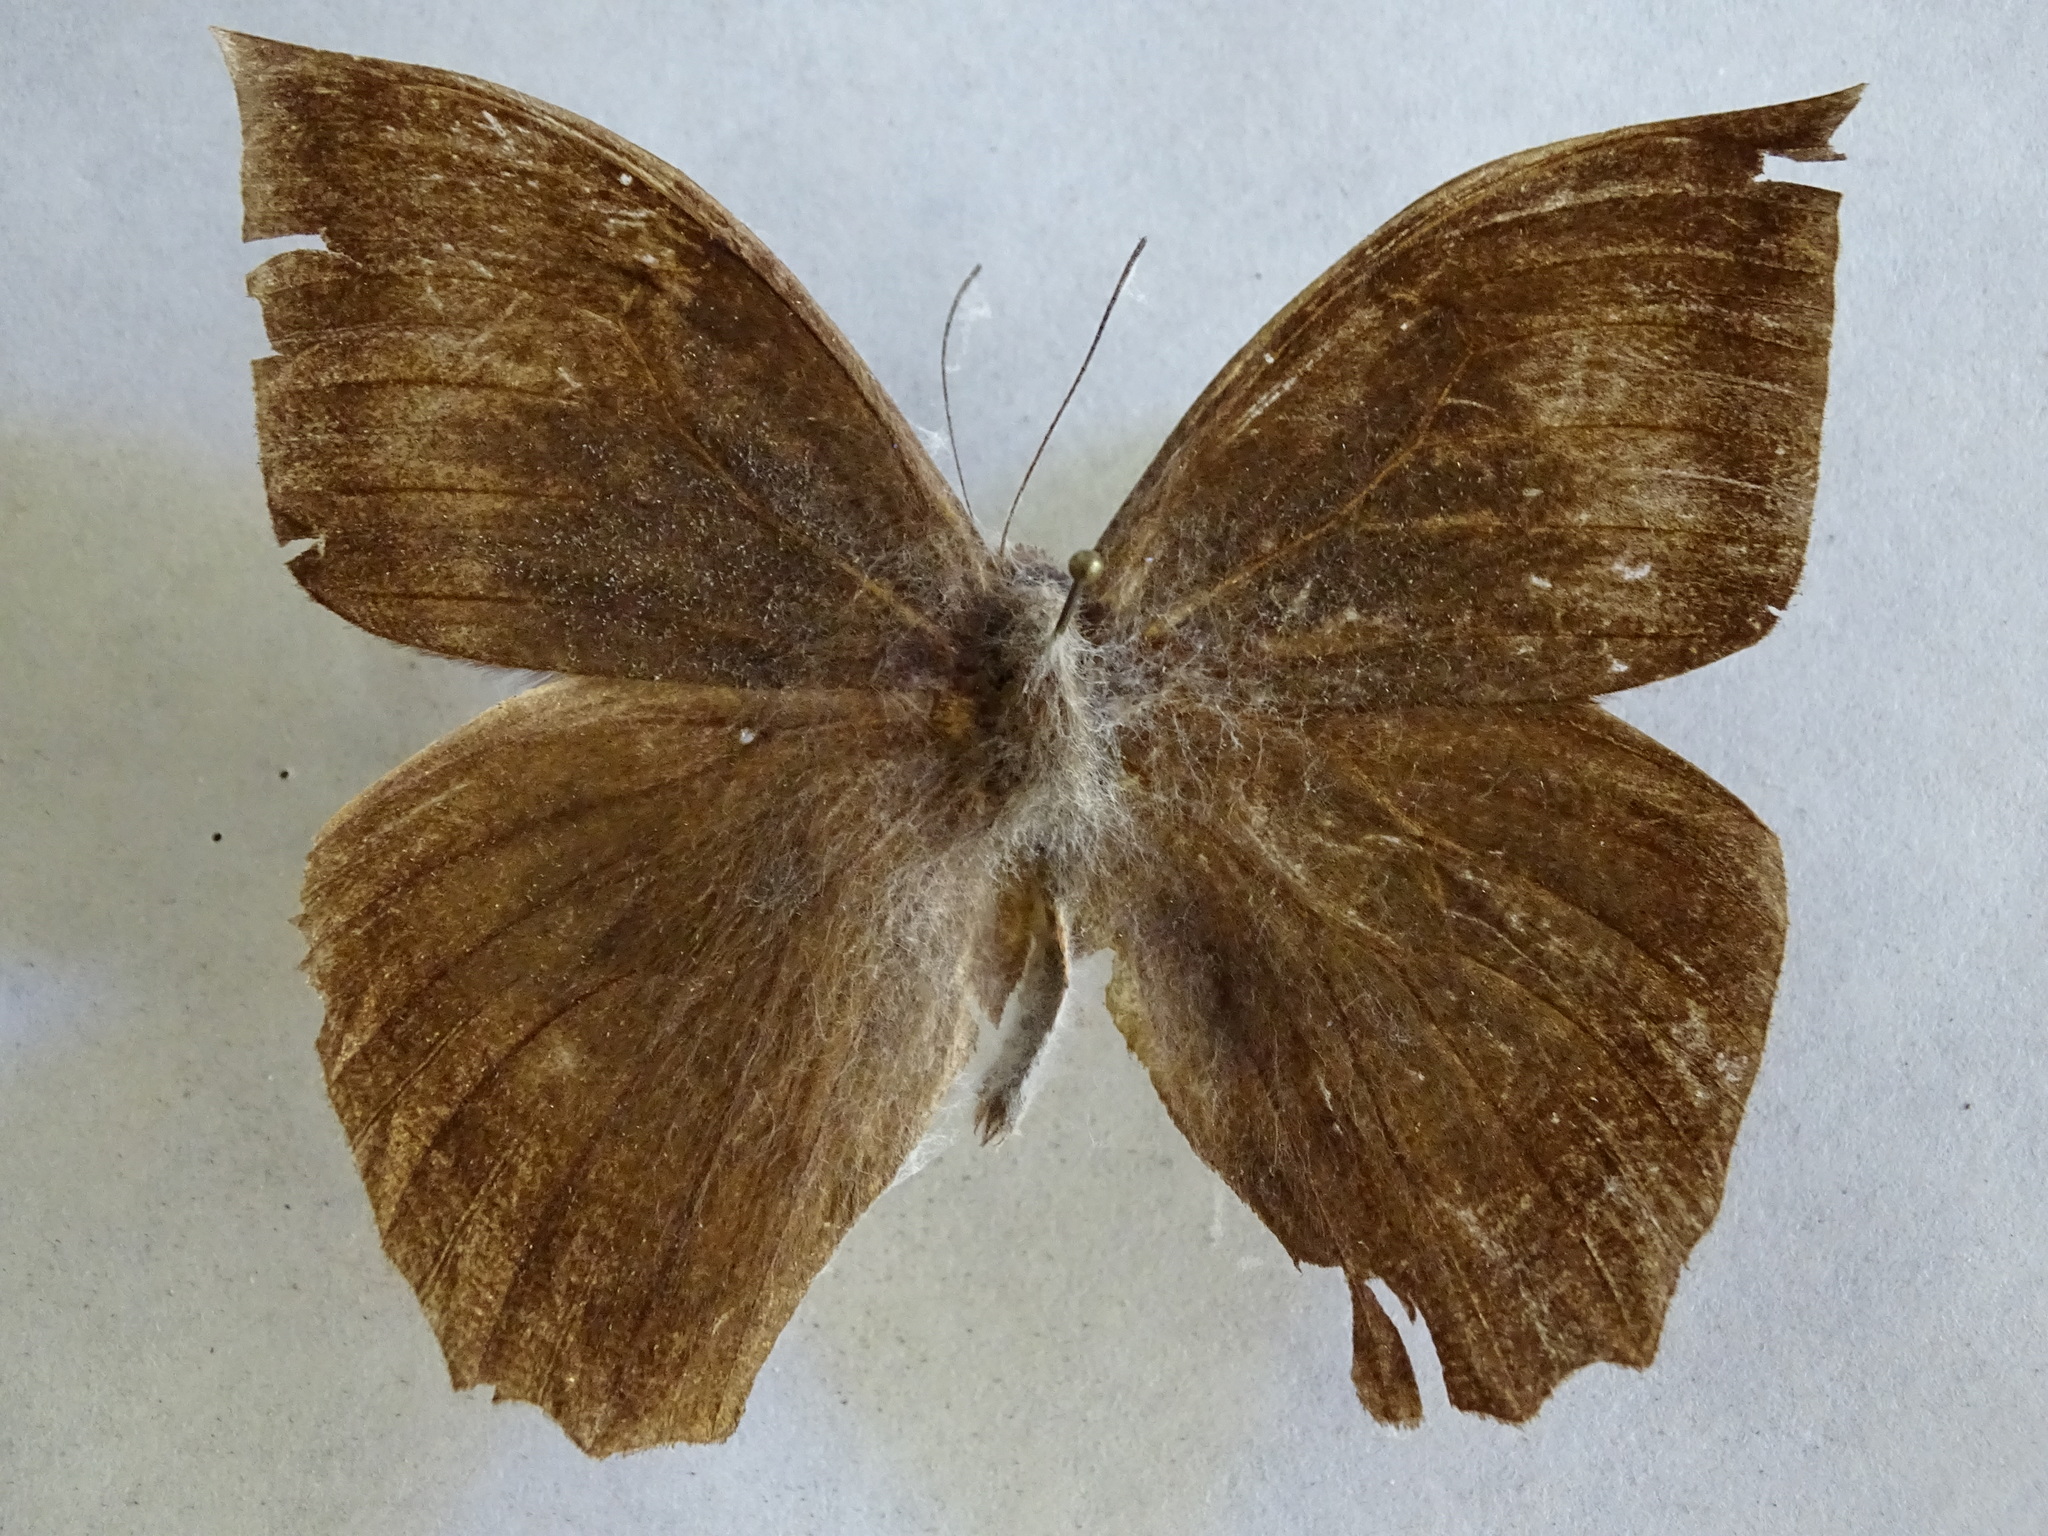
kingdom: Animalia
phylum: Arthropoda
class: Insecta
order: Lepidoptera
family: Nymphalidae
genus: Taygetis
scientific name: Taygetis mermeria
